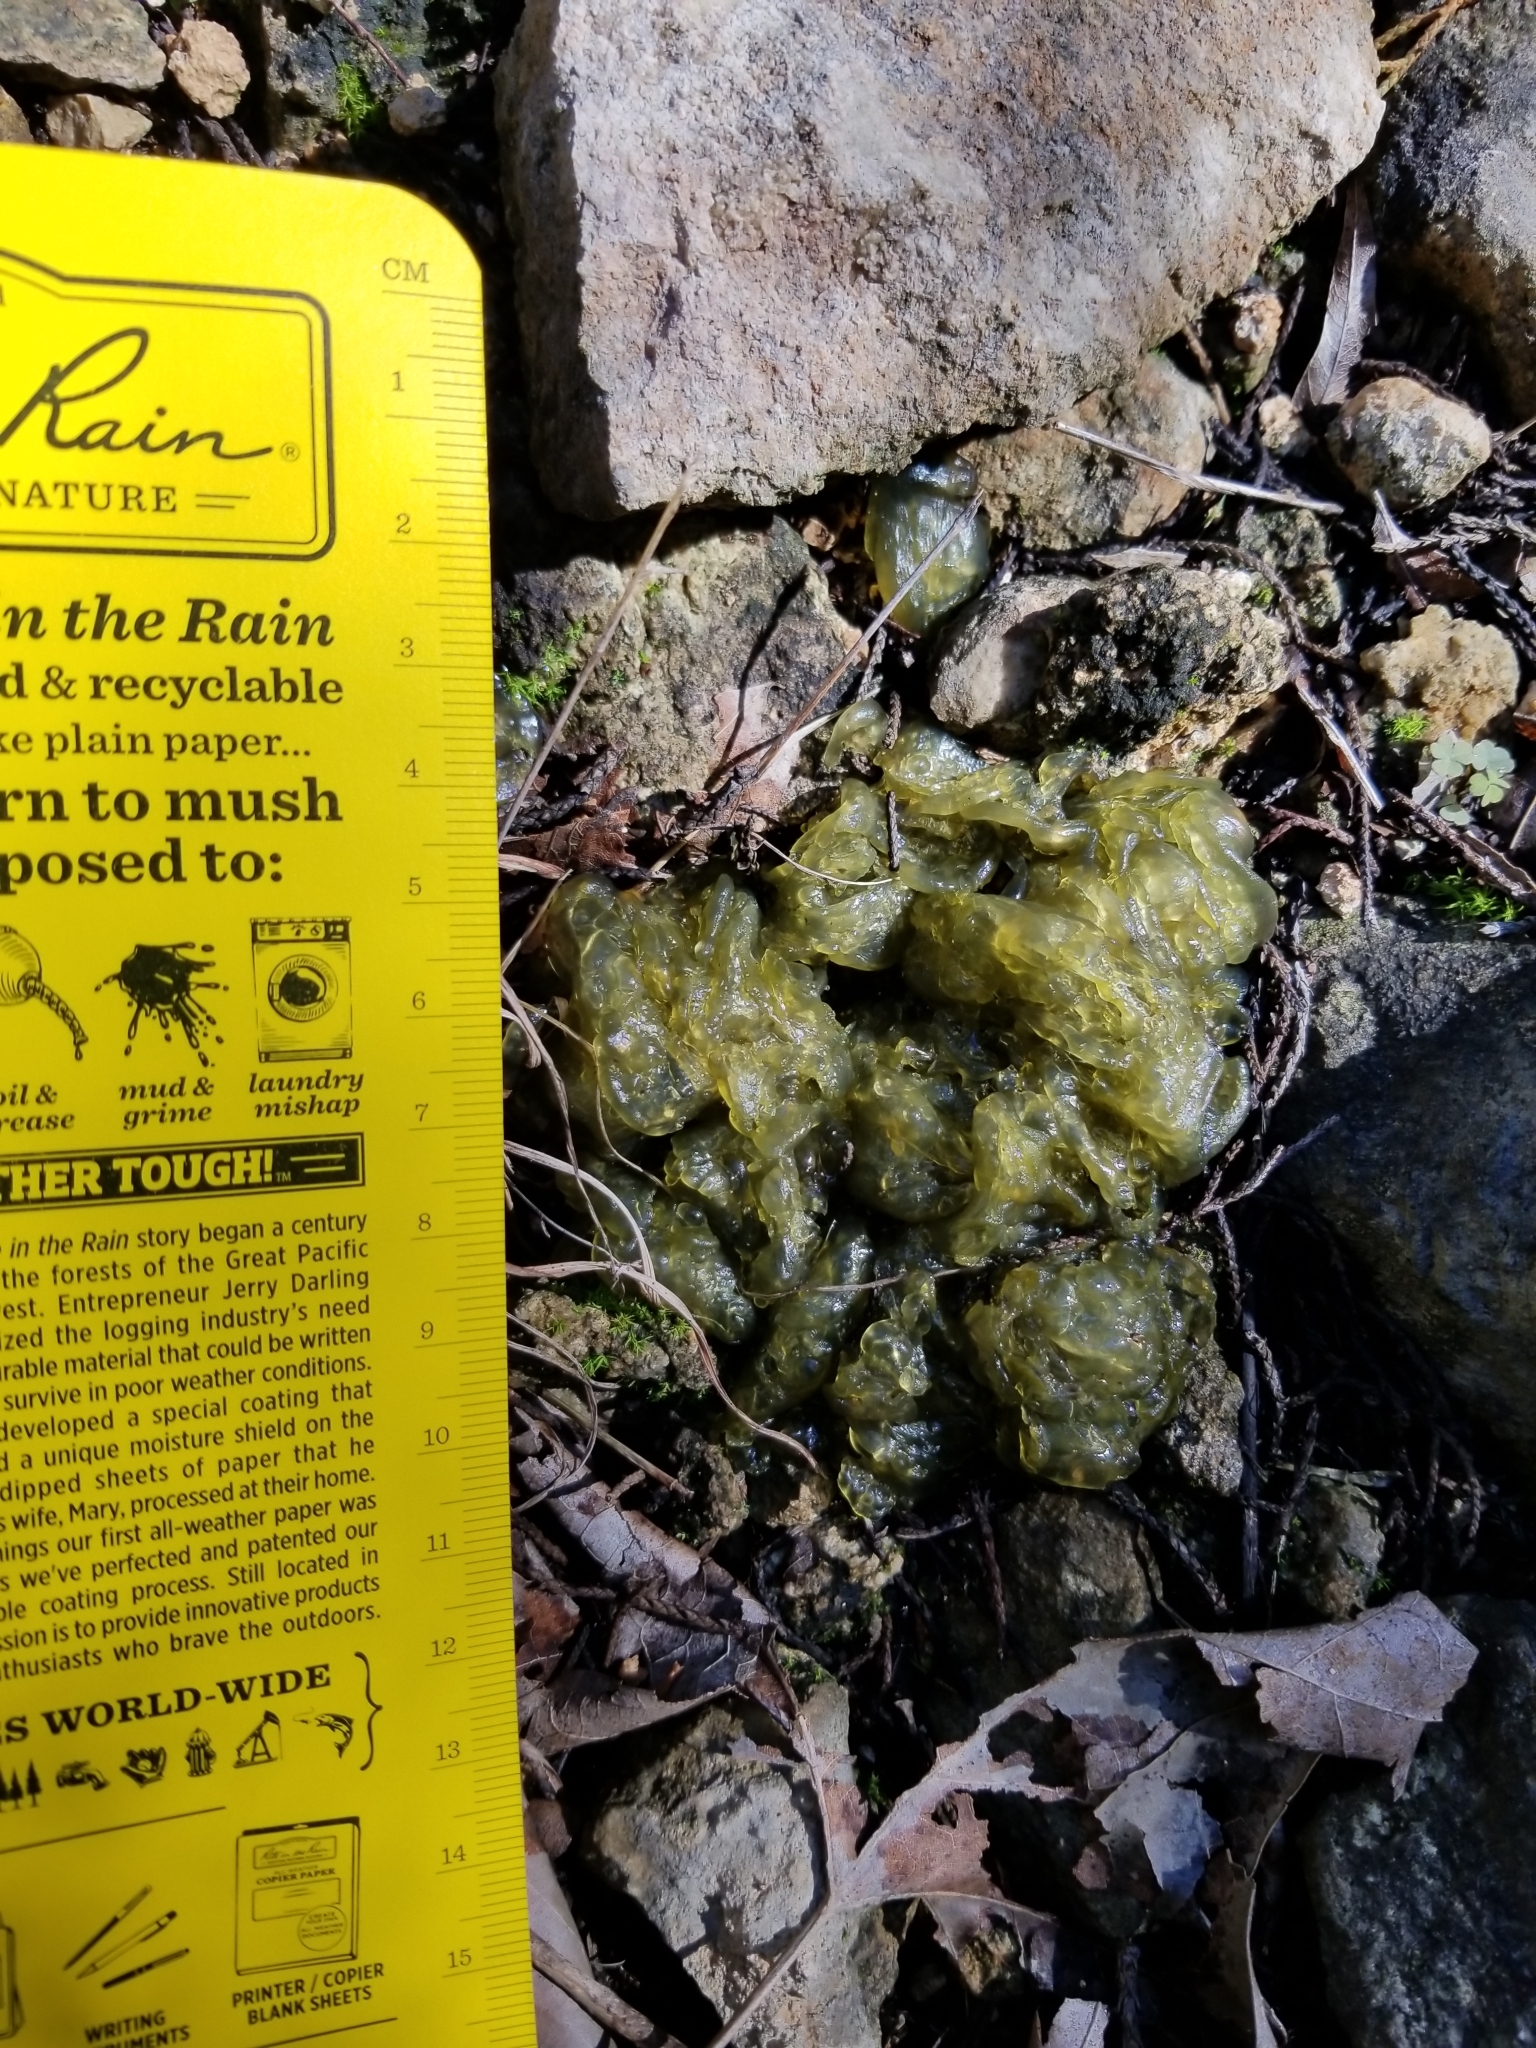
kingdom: Bacteria
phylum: Cyanobacteria
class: Cyanobacteriia
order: Cyanobacteriales
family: Nostocaceae
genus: Nostoc
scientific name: Nostoc commune
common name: Star jelly
